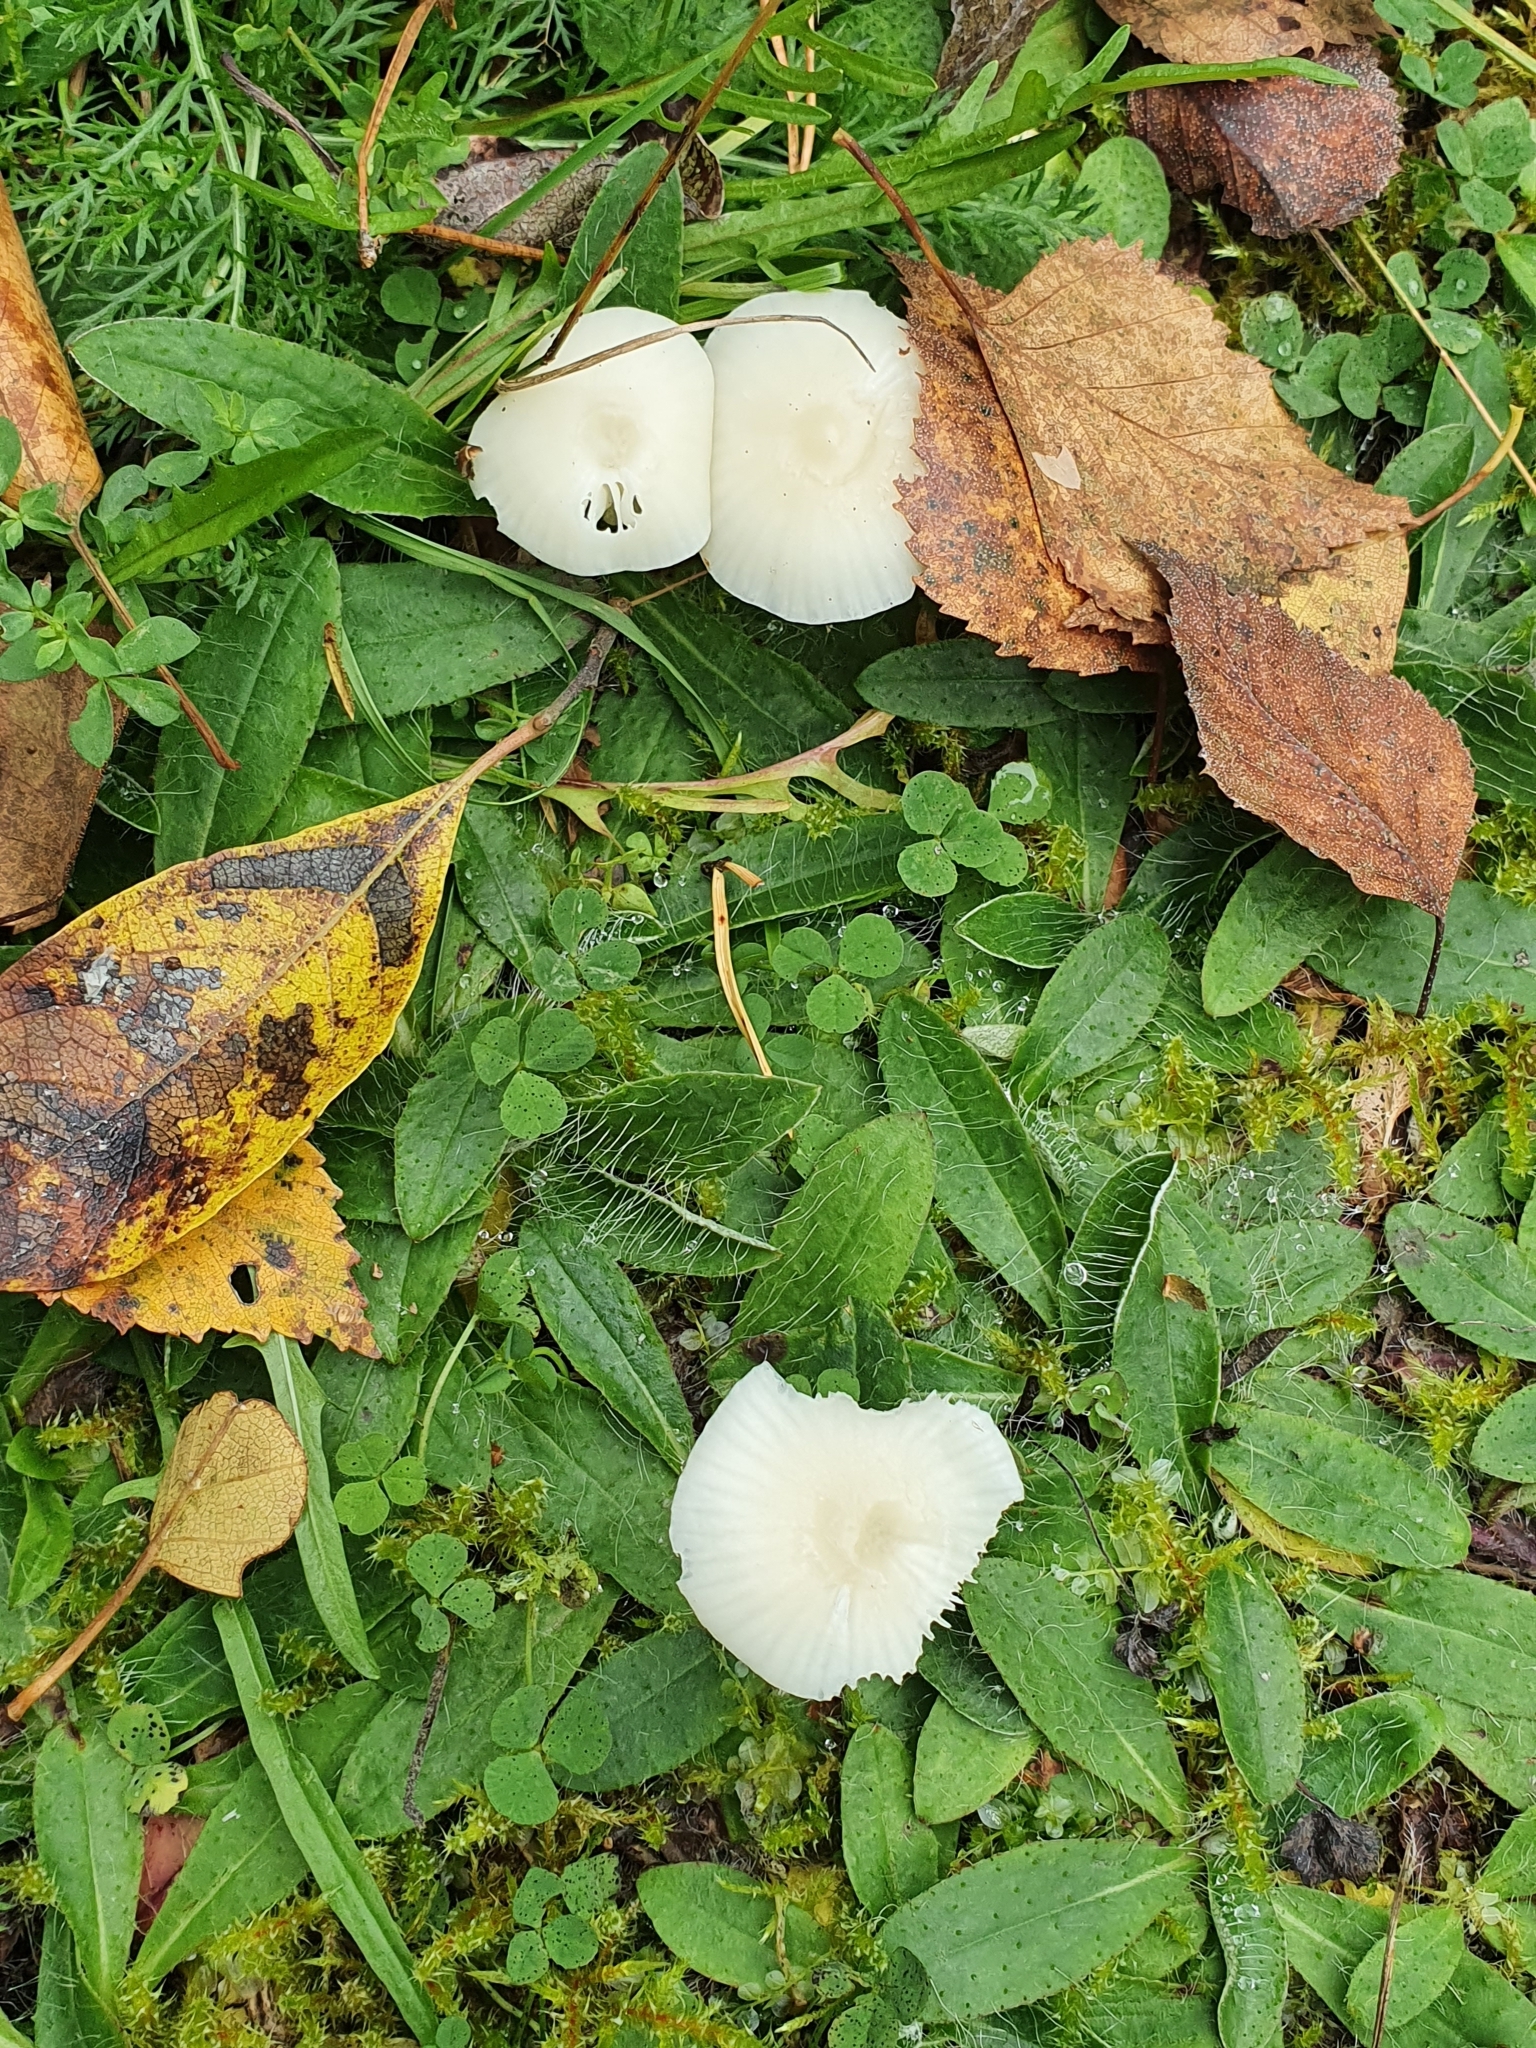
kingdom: Fungi
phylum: Basidiomycota
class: Agaricomycetes
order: Agaricales
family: Hygrophoraceae
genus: Cuphophyllus
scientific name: Cuphophyllus virgineus
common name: Snowy waxcap
